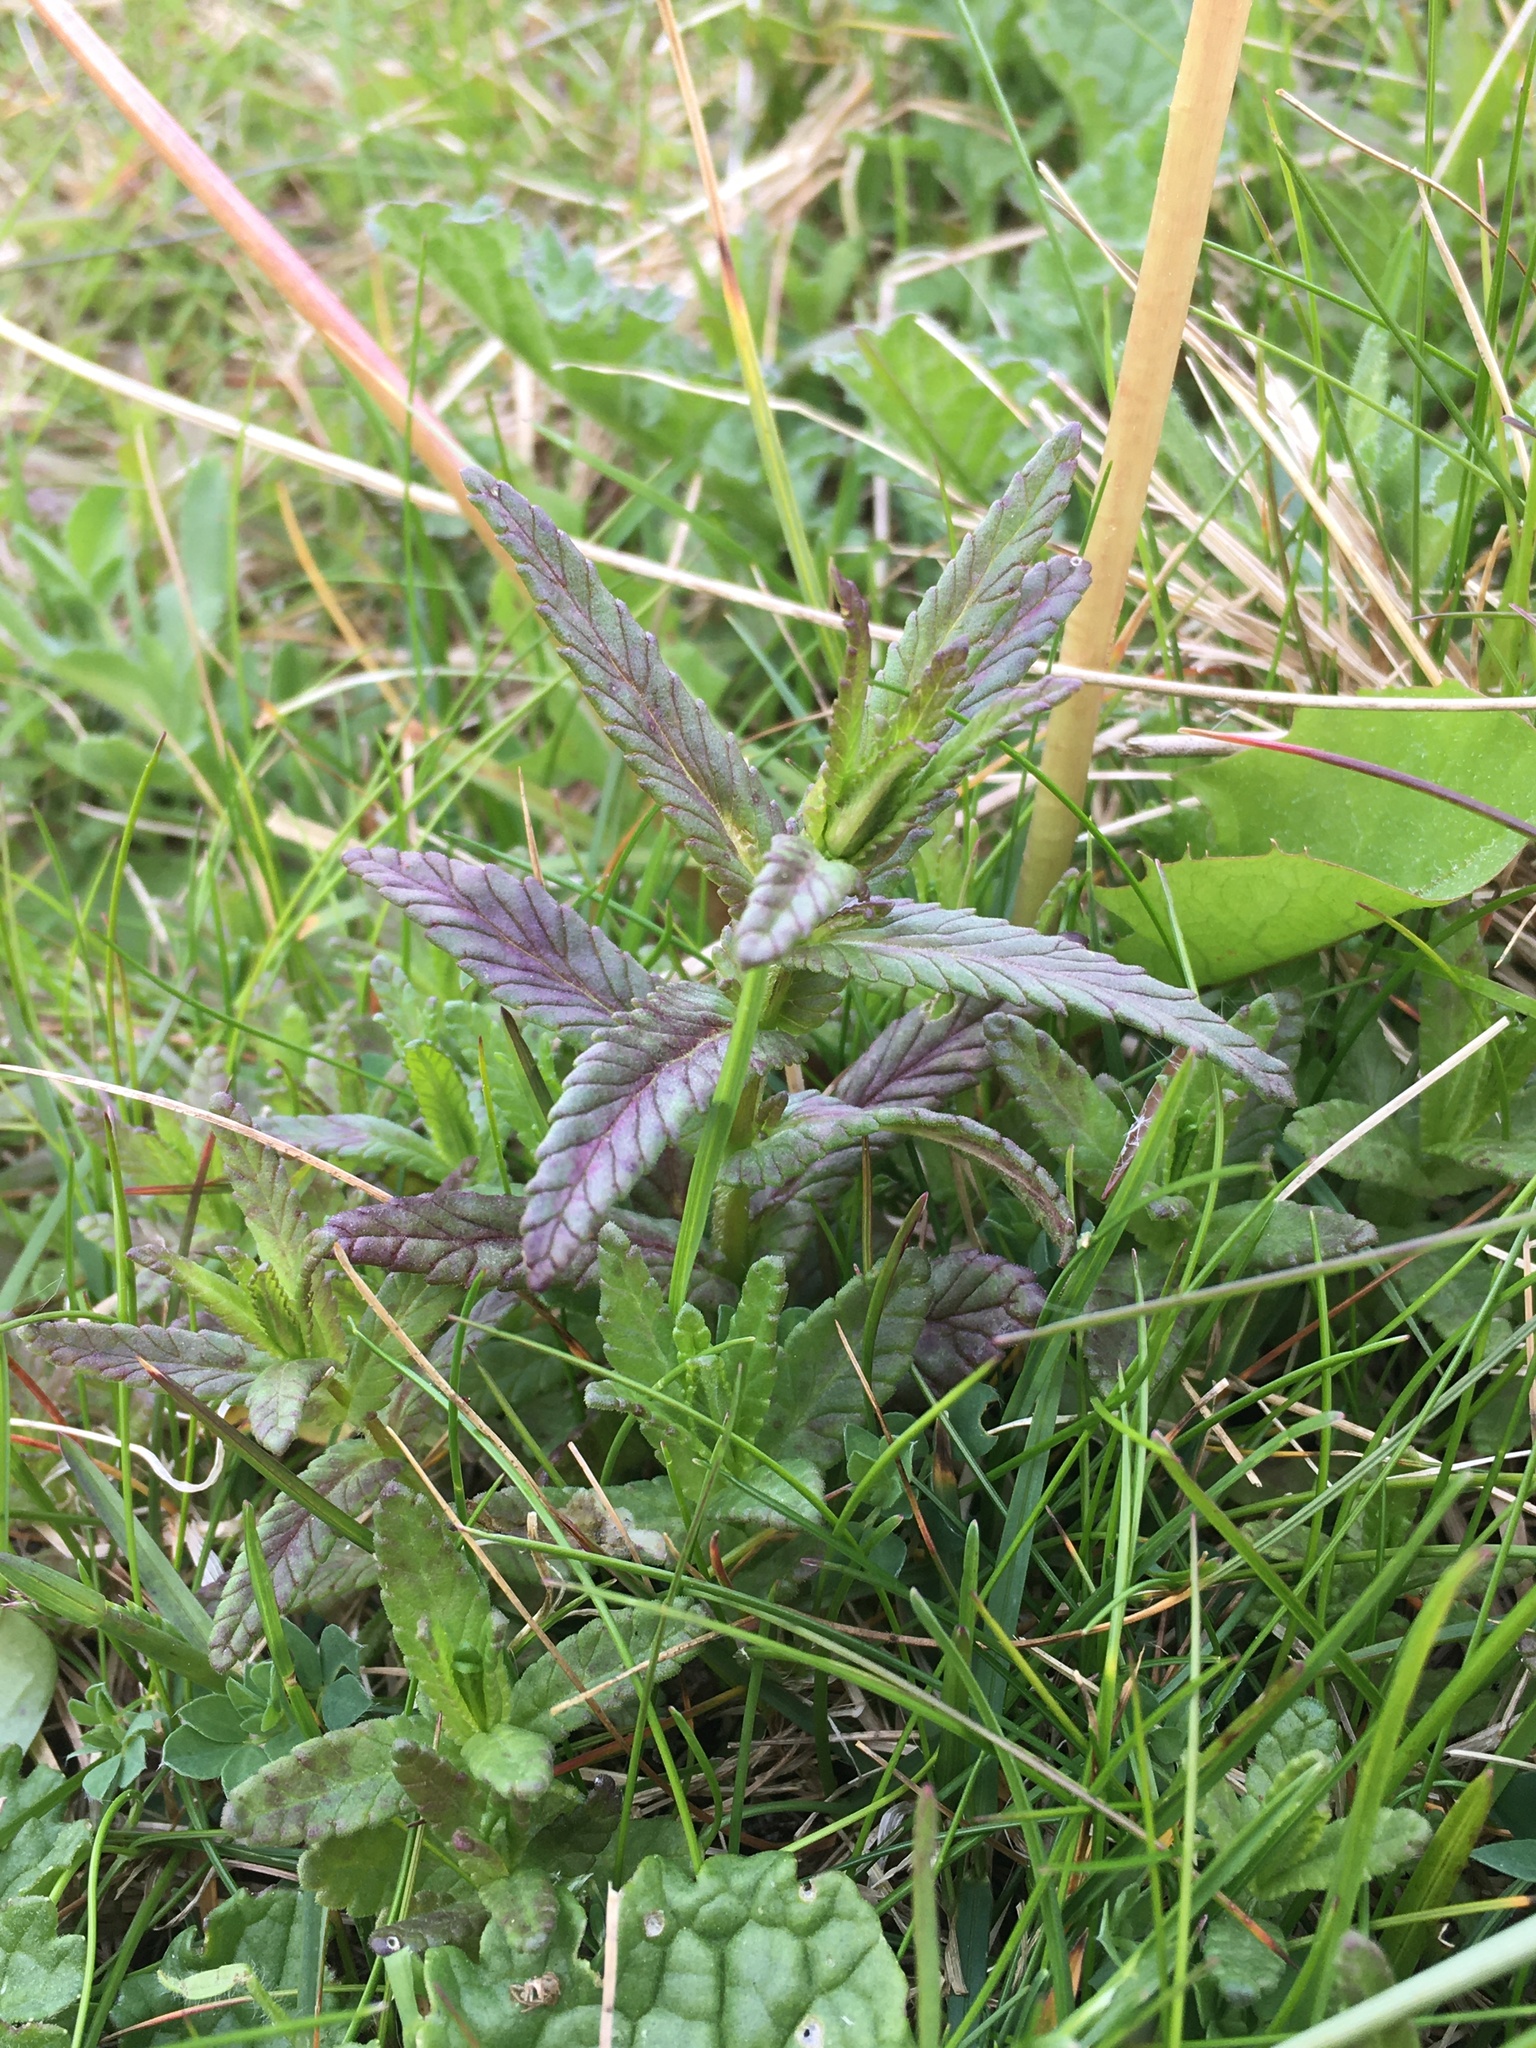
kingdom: Plantae
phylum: Tracheophyta
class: Magnoliopsida
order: Lamiales
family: Orobanchaceae
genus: Rhinanthus
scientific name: Rhinanthus minor
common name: Yellow-rattle
